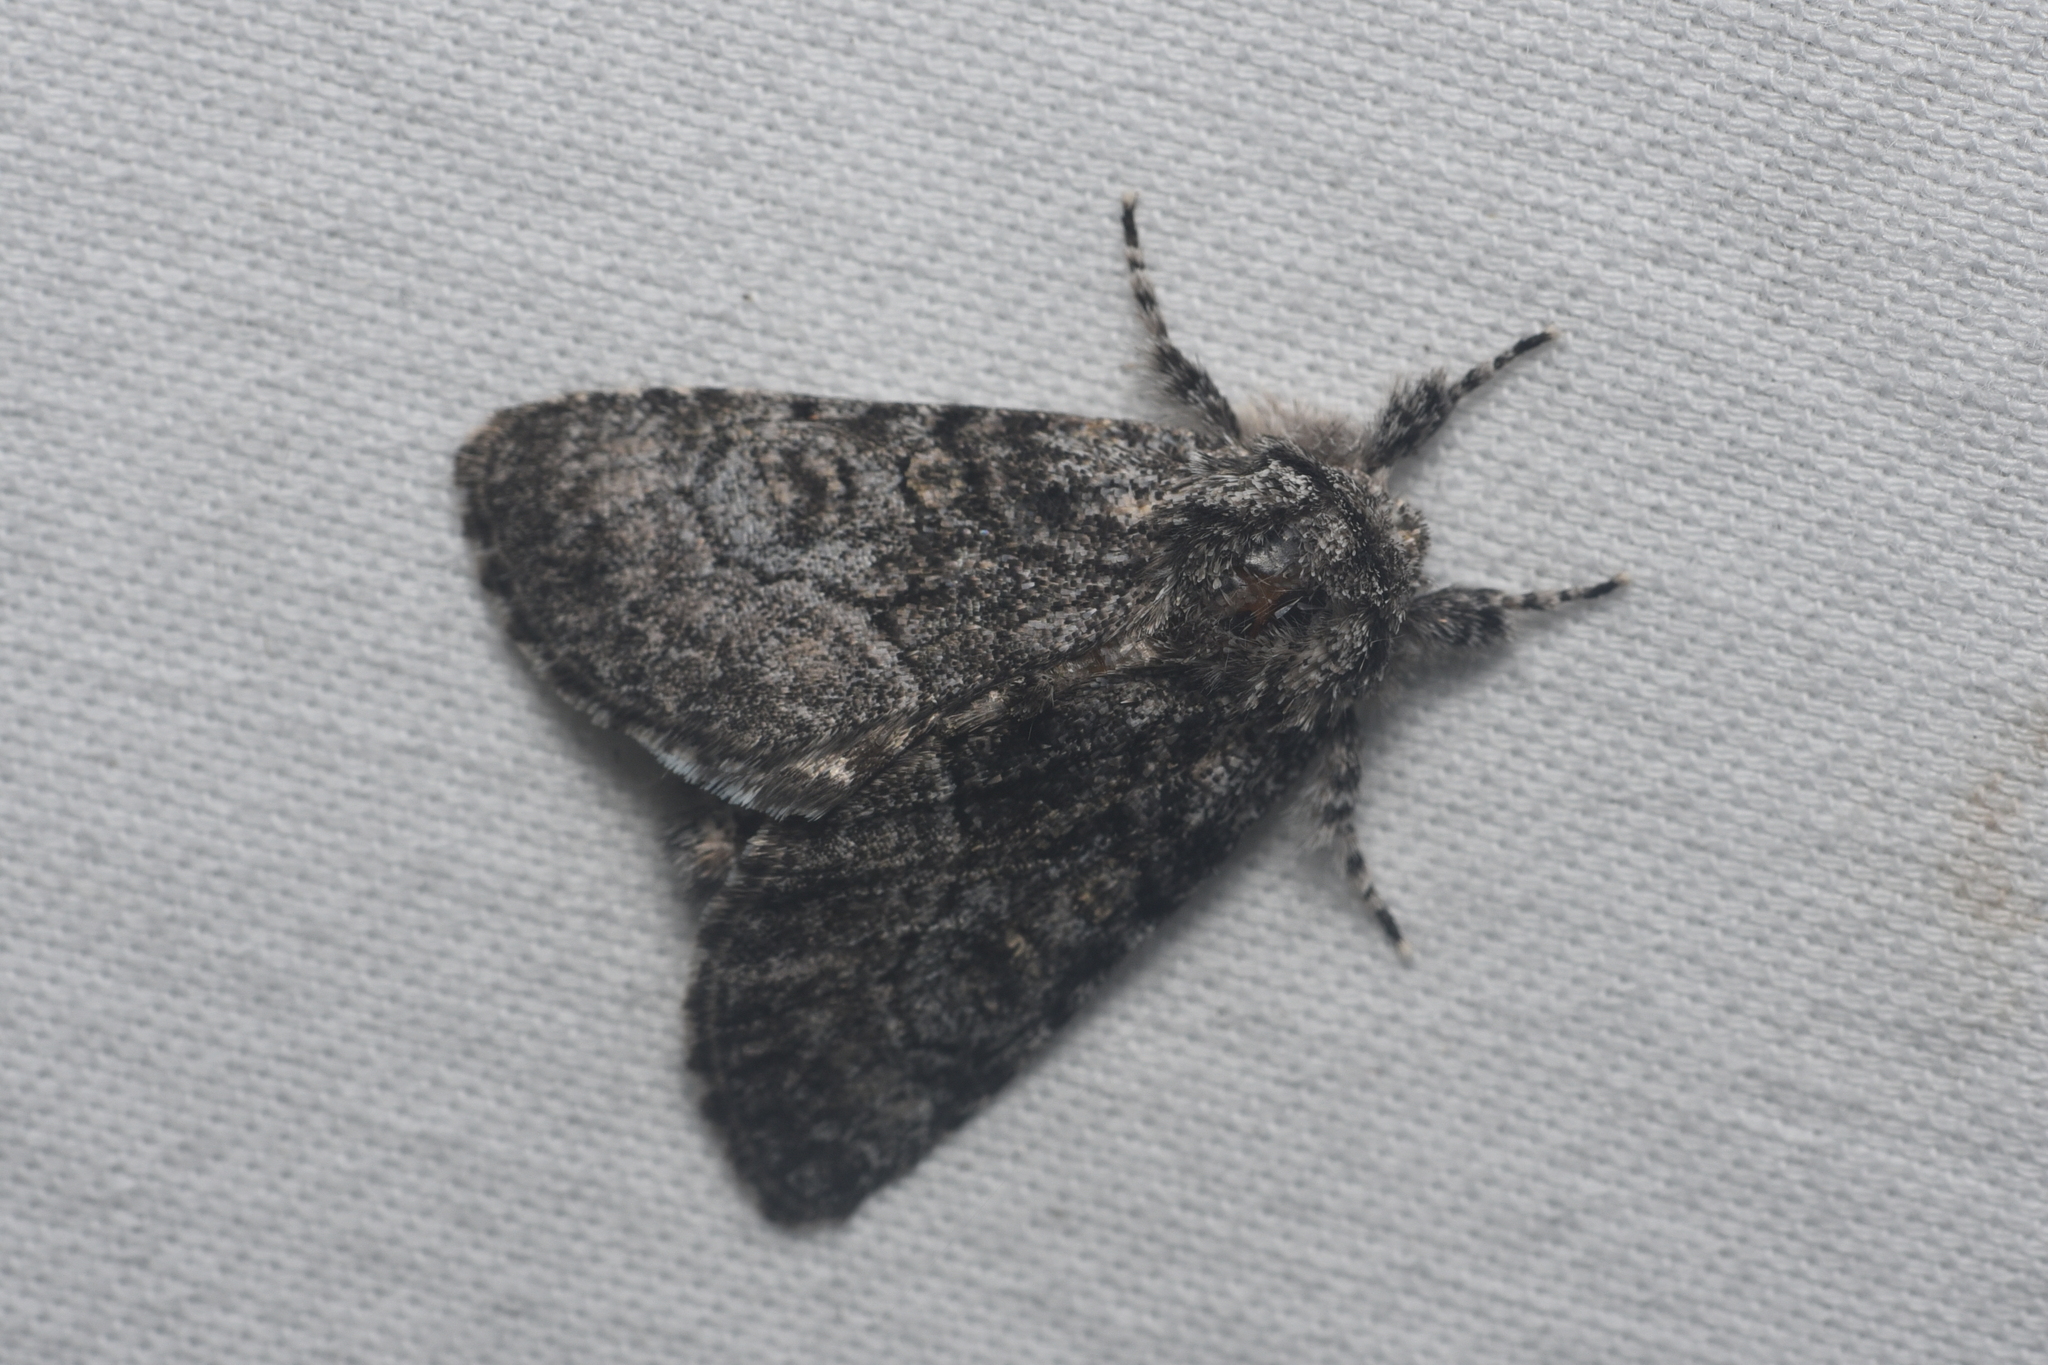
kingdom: Animalia
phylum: Arthropoda
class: Insecta
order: Lepidoptera
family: Noctuidae
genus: Raphia
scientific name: Raphia frater
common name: Brother
